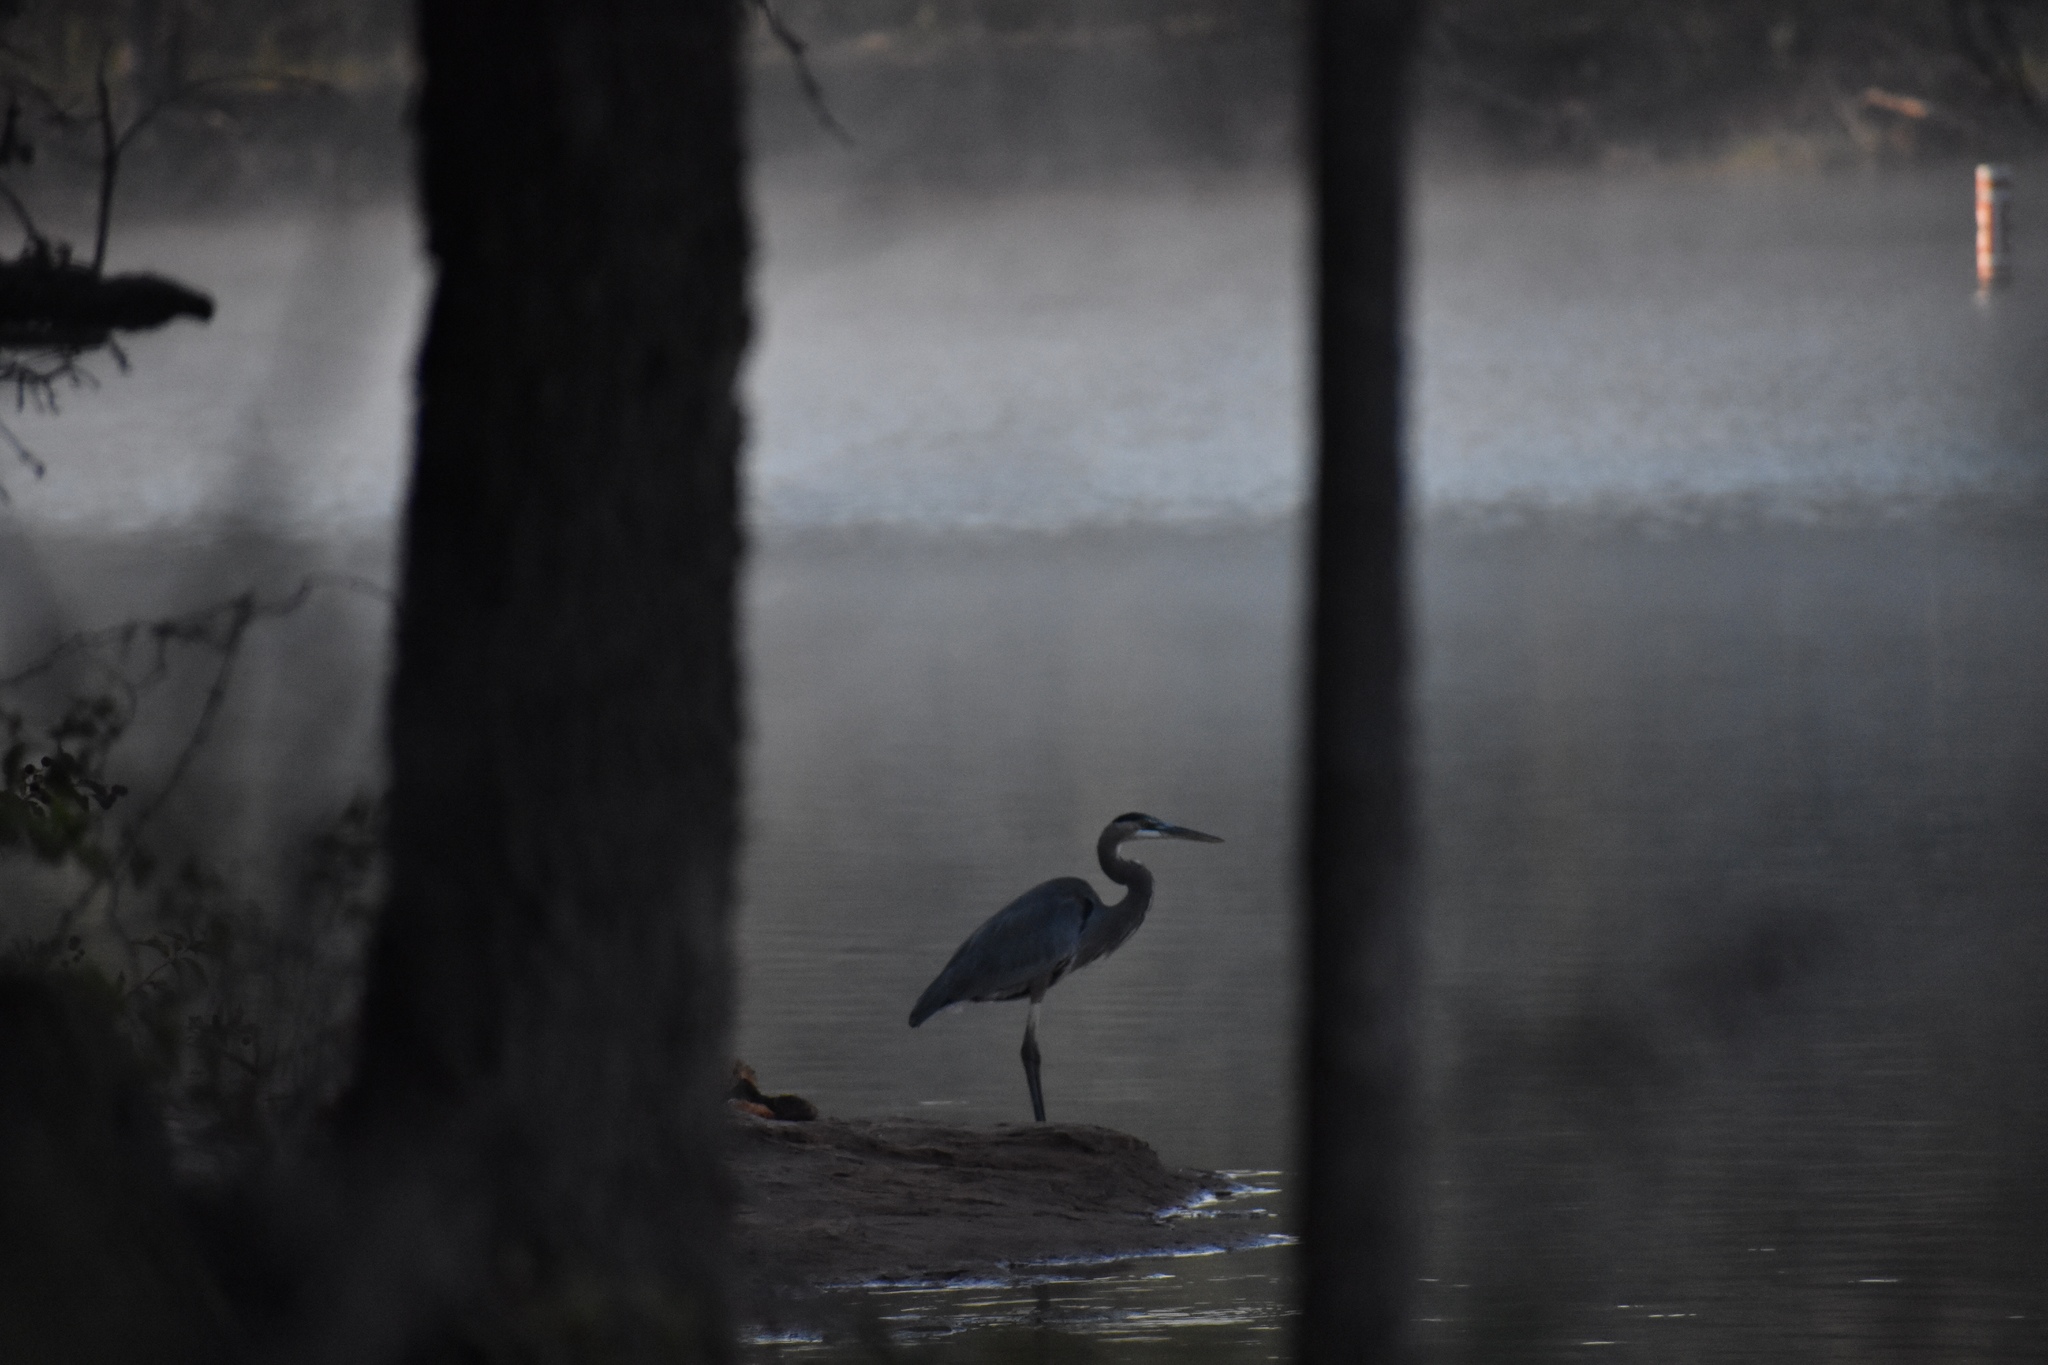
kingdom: Animalia
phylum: Chordata
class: Aves
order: Pelecaniformes
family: Ardeidae
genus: Ardea
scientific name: Ardea herodias
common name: Great blue heron
